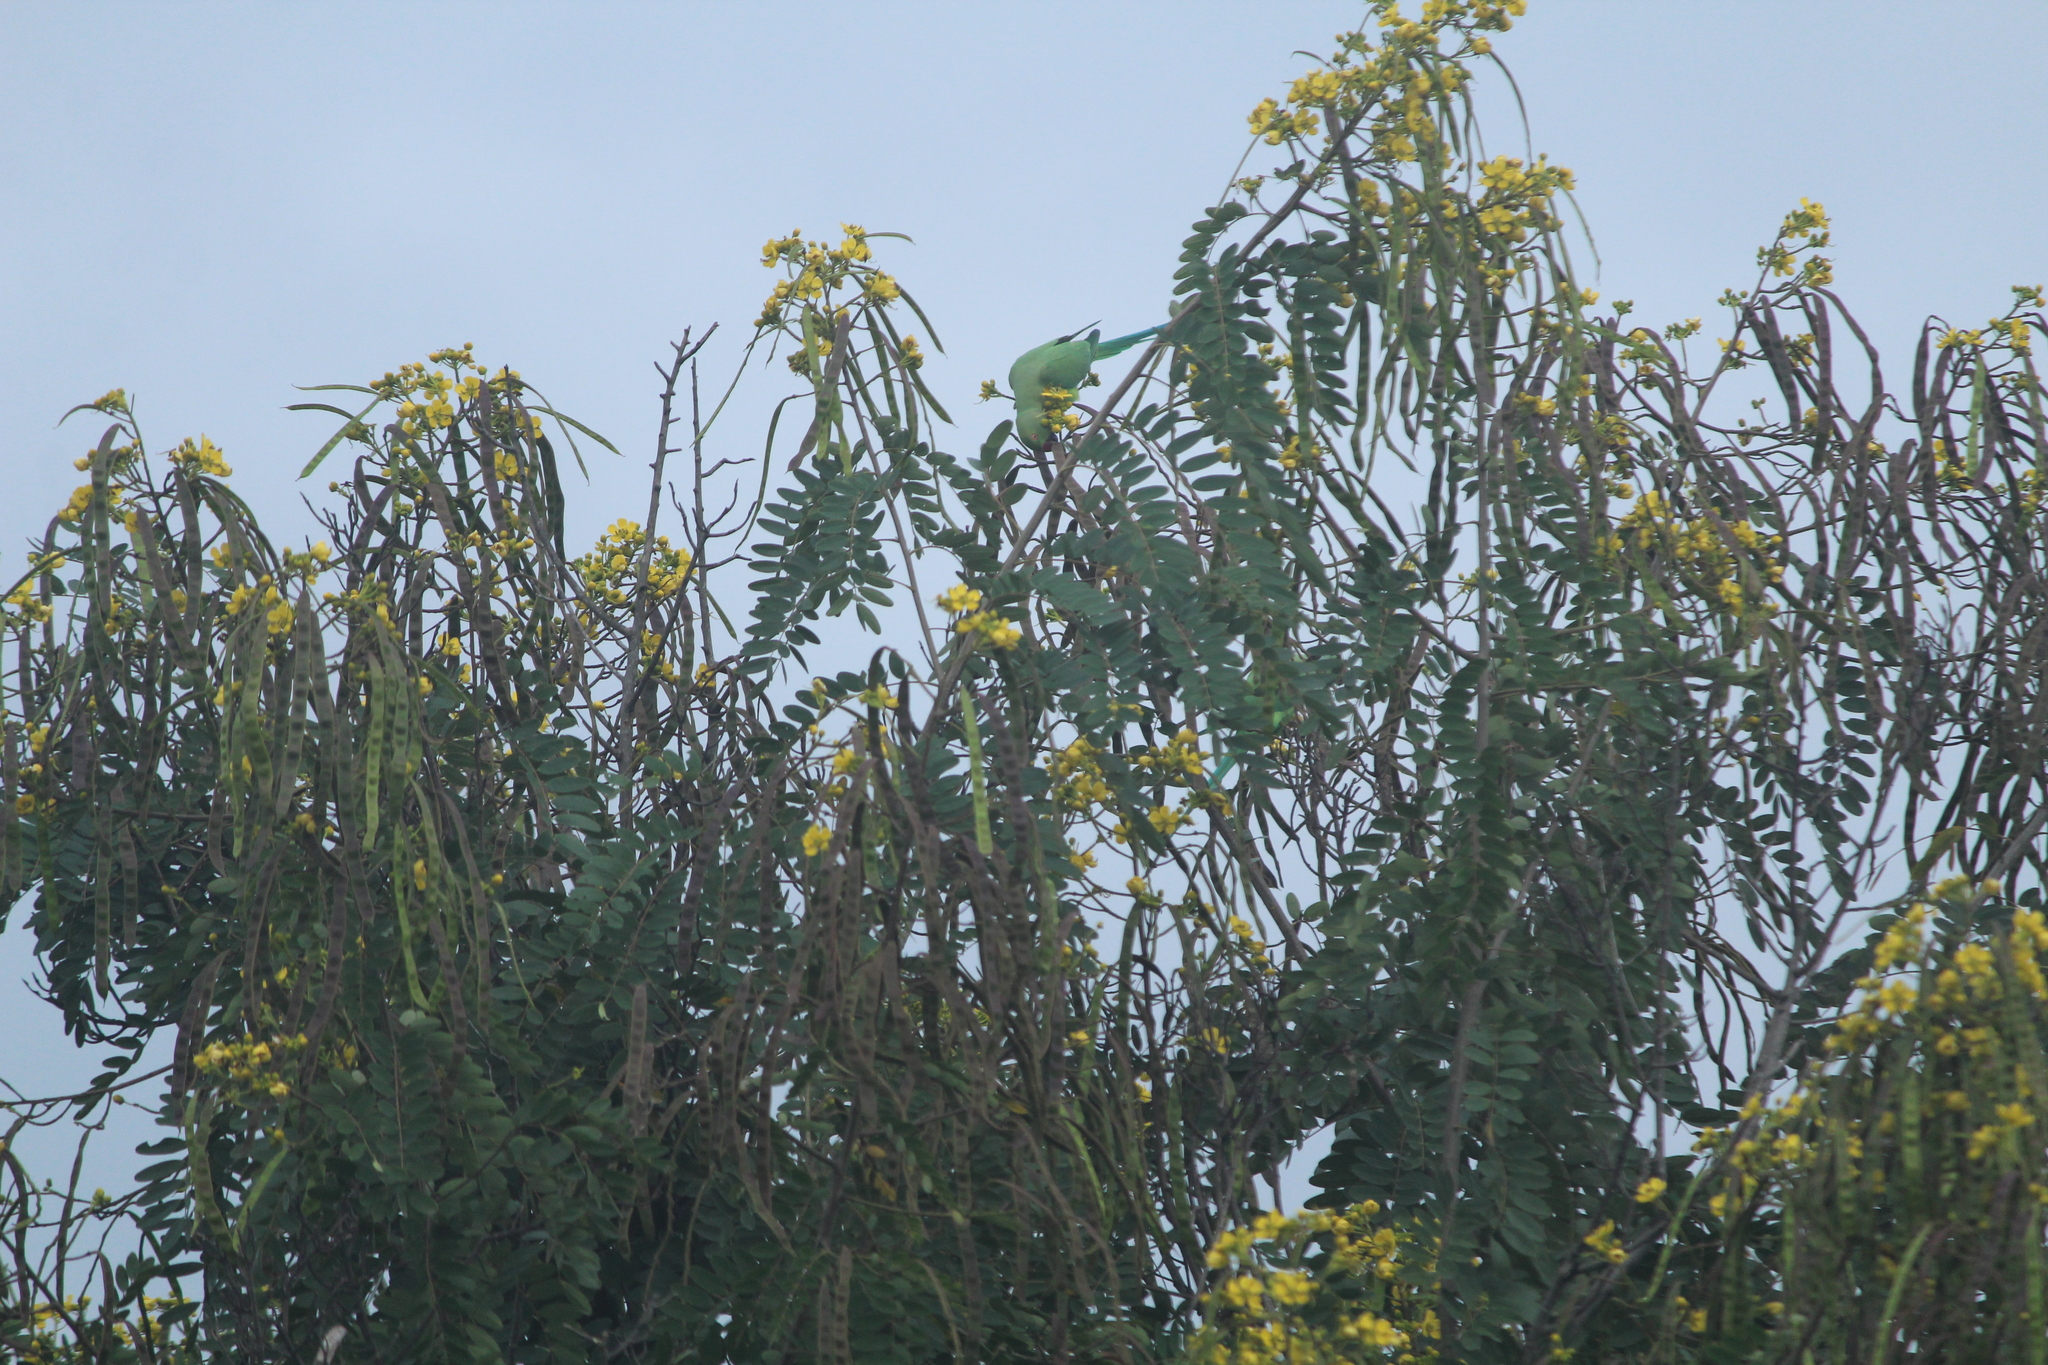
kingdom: Animalia
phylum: Chordata
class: Aves
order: Psittaciformes
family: Psittacidae
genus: Psittacula
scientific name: Psittacula krameri
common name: Rose-ringed parakeet
